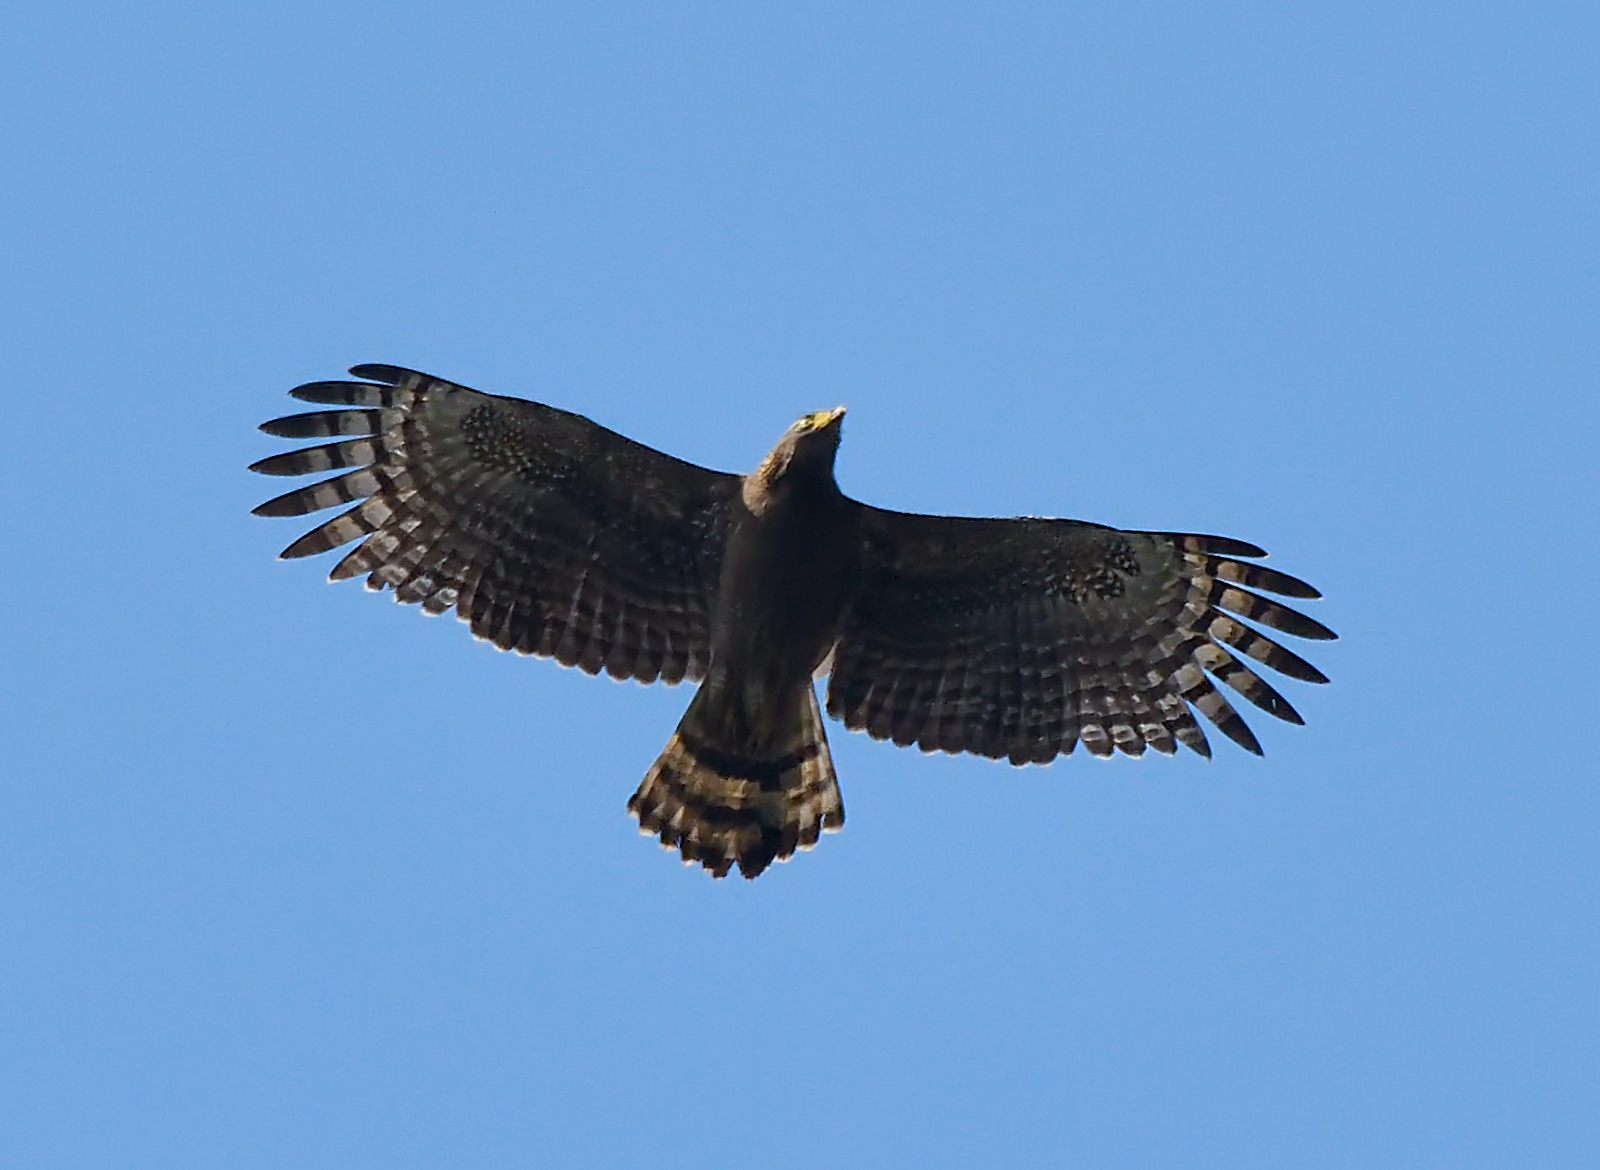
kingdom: Animalia
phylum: Chordata
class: Aves
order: Accipitriformes
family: Accipitridae
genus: Spilornis
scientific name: Spilornis cheela
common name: Crested serpent eagle
